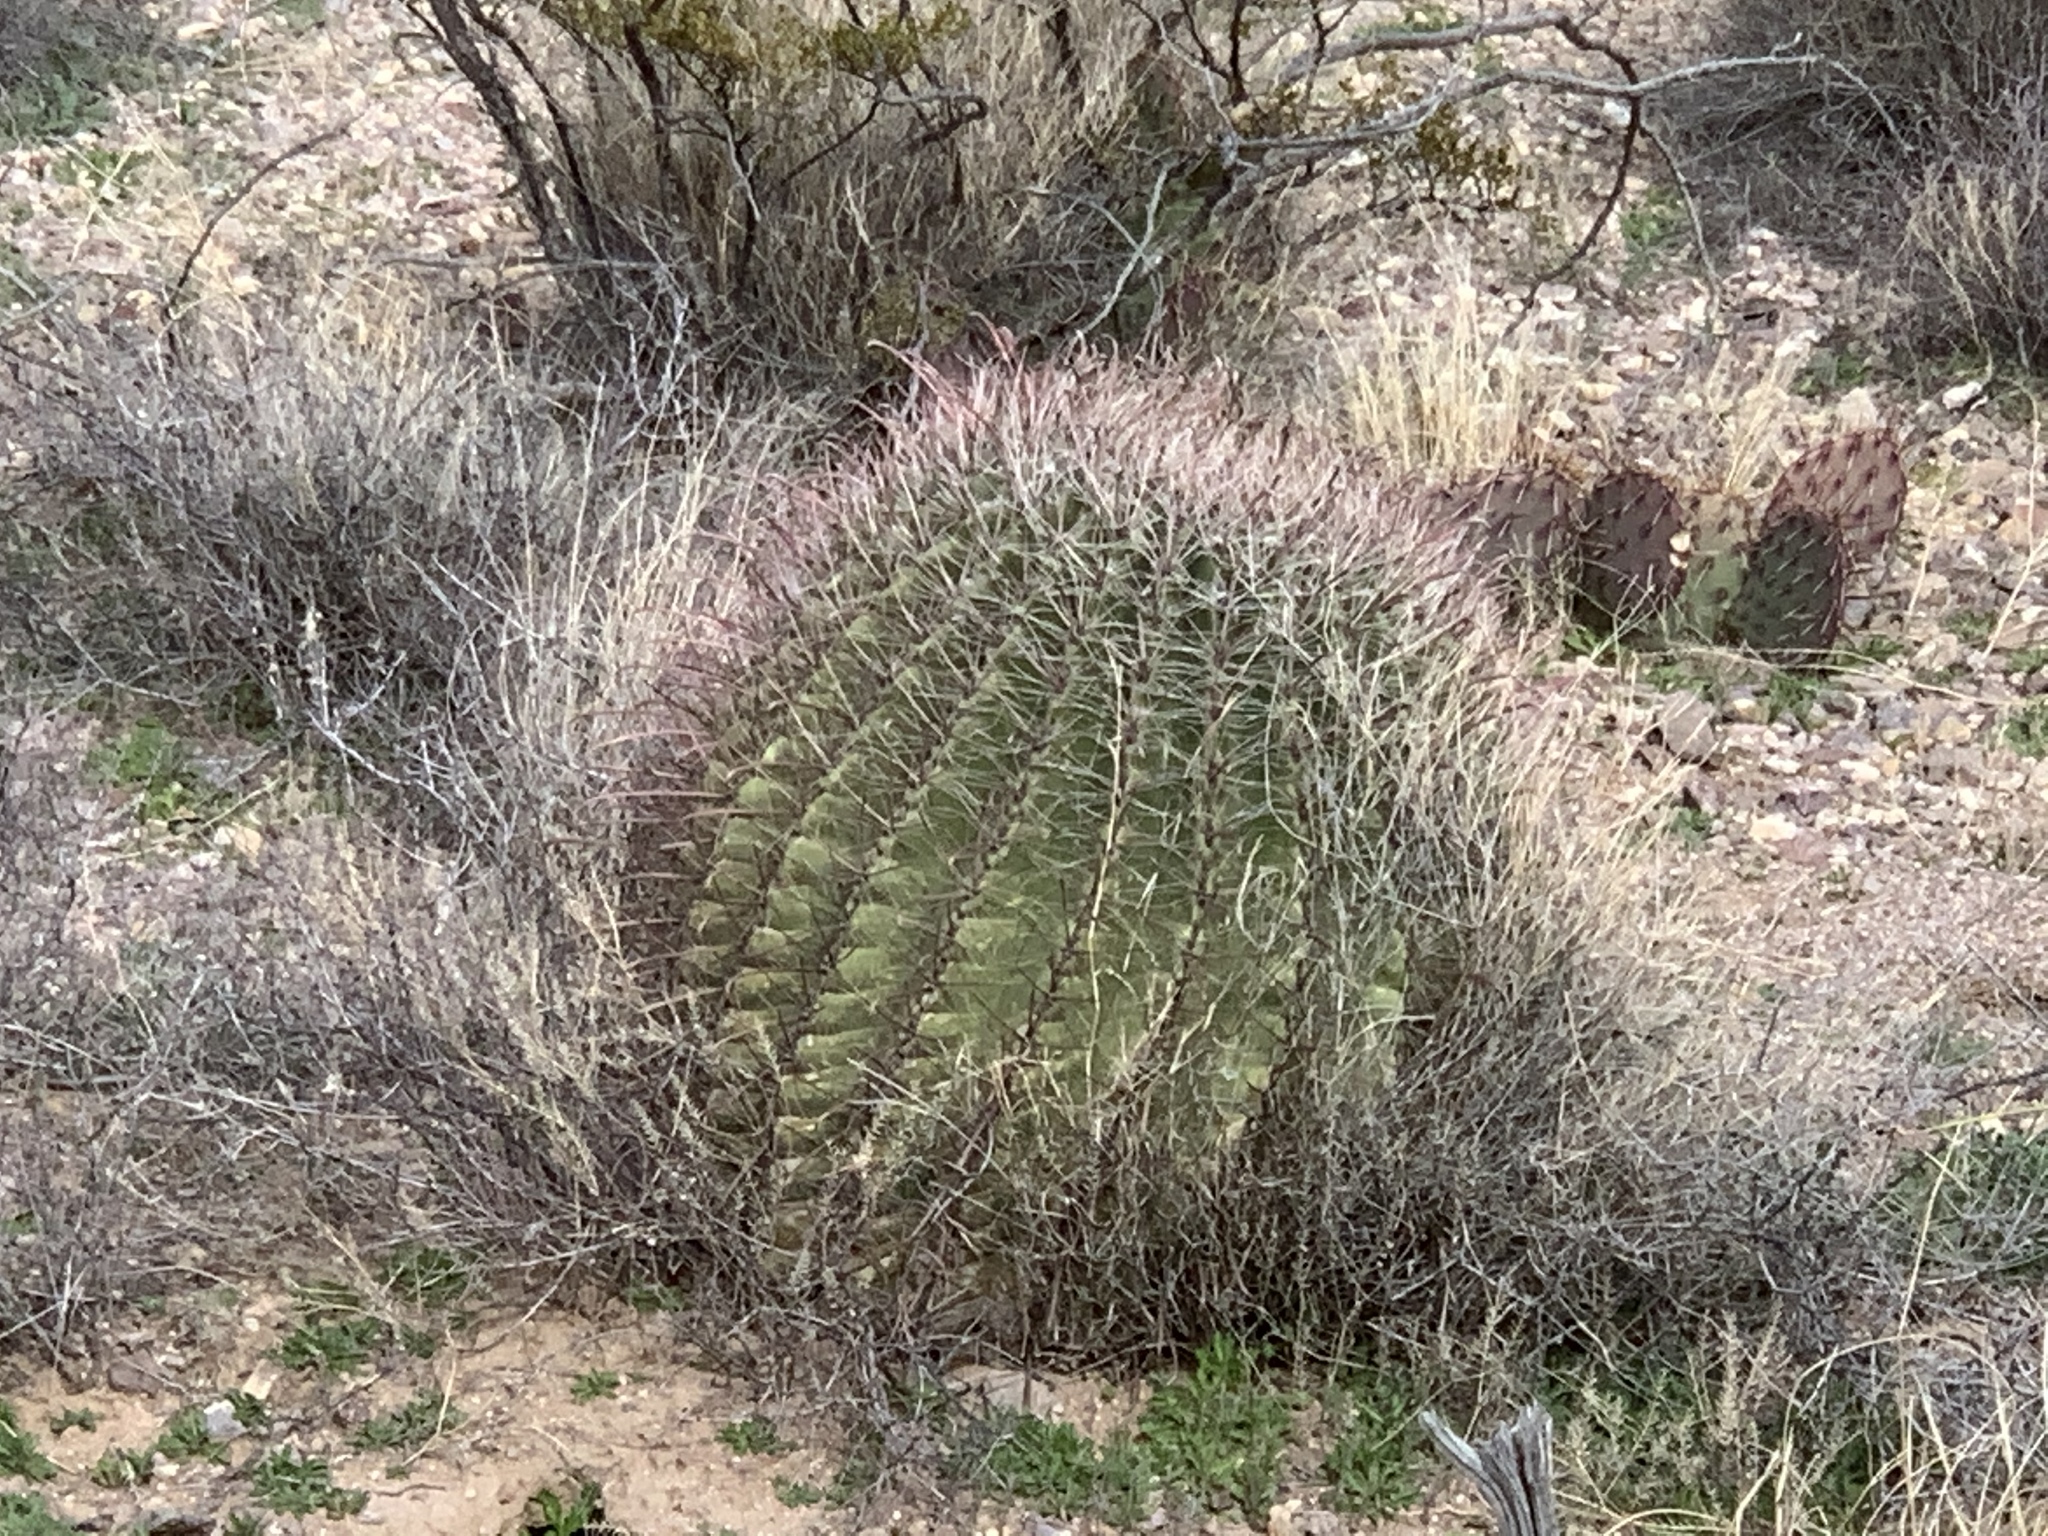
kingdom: Plantae
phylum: Tracheophyta
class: Magnoliopsida
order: Caryophyllales
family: Cactaceae
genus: Ferocactus
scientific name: Ferocactus wislizeni
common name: Candy barrel cactus
